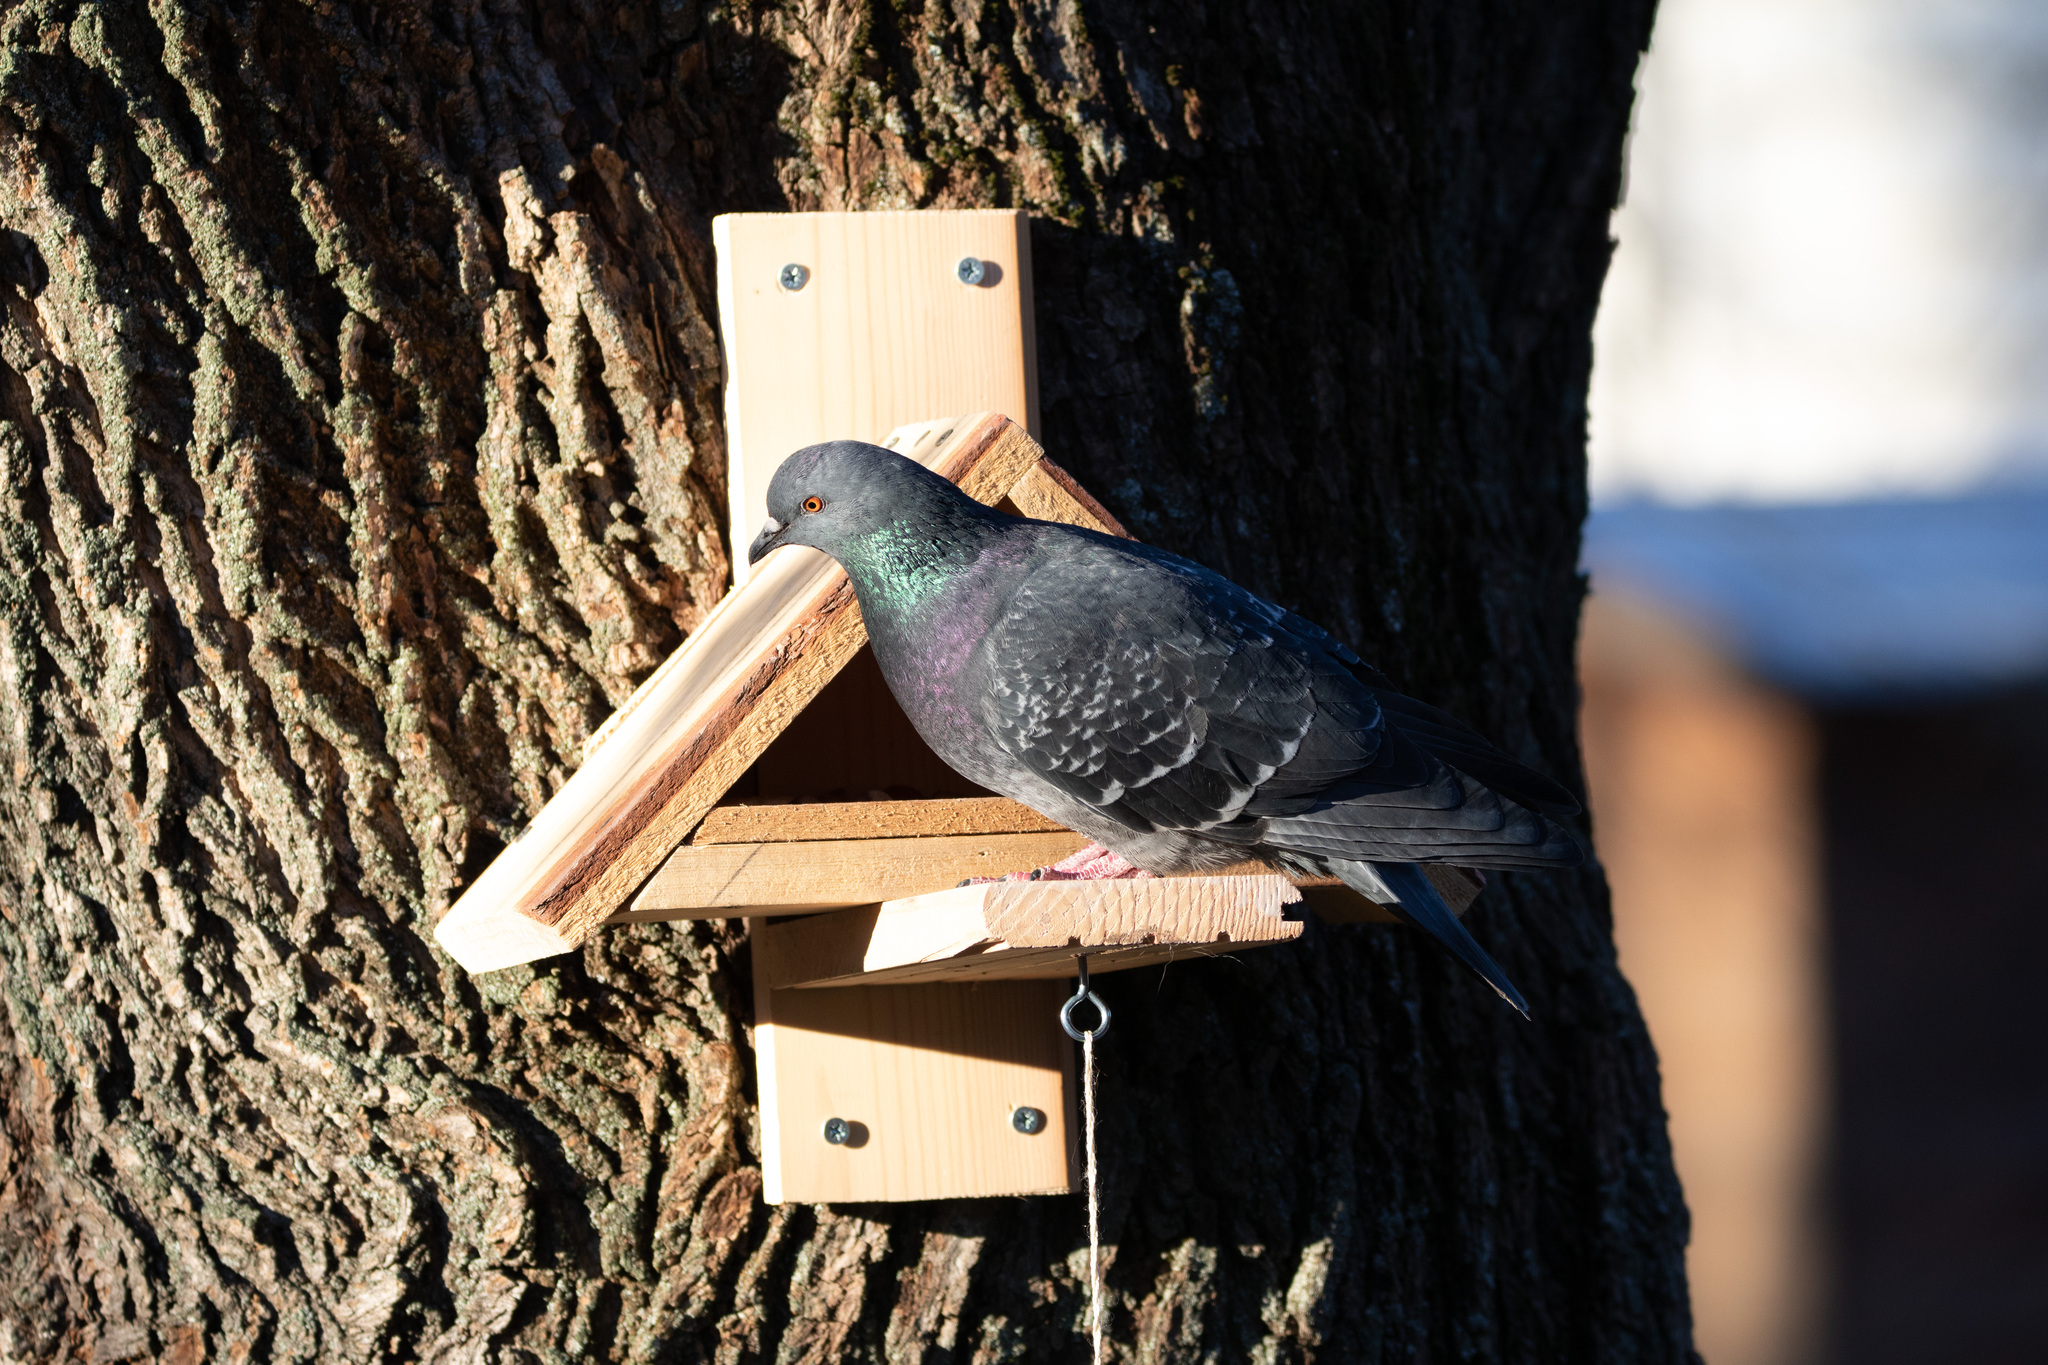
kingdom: Animalia
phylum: Chordata
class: Aves
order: Columbiformes
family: Columbidae
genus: Columba
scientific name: Columba livia
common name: Rock pigeon
